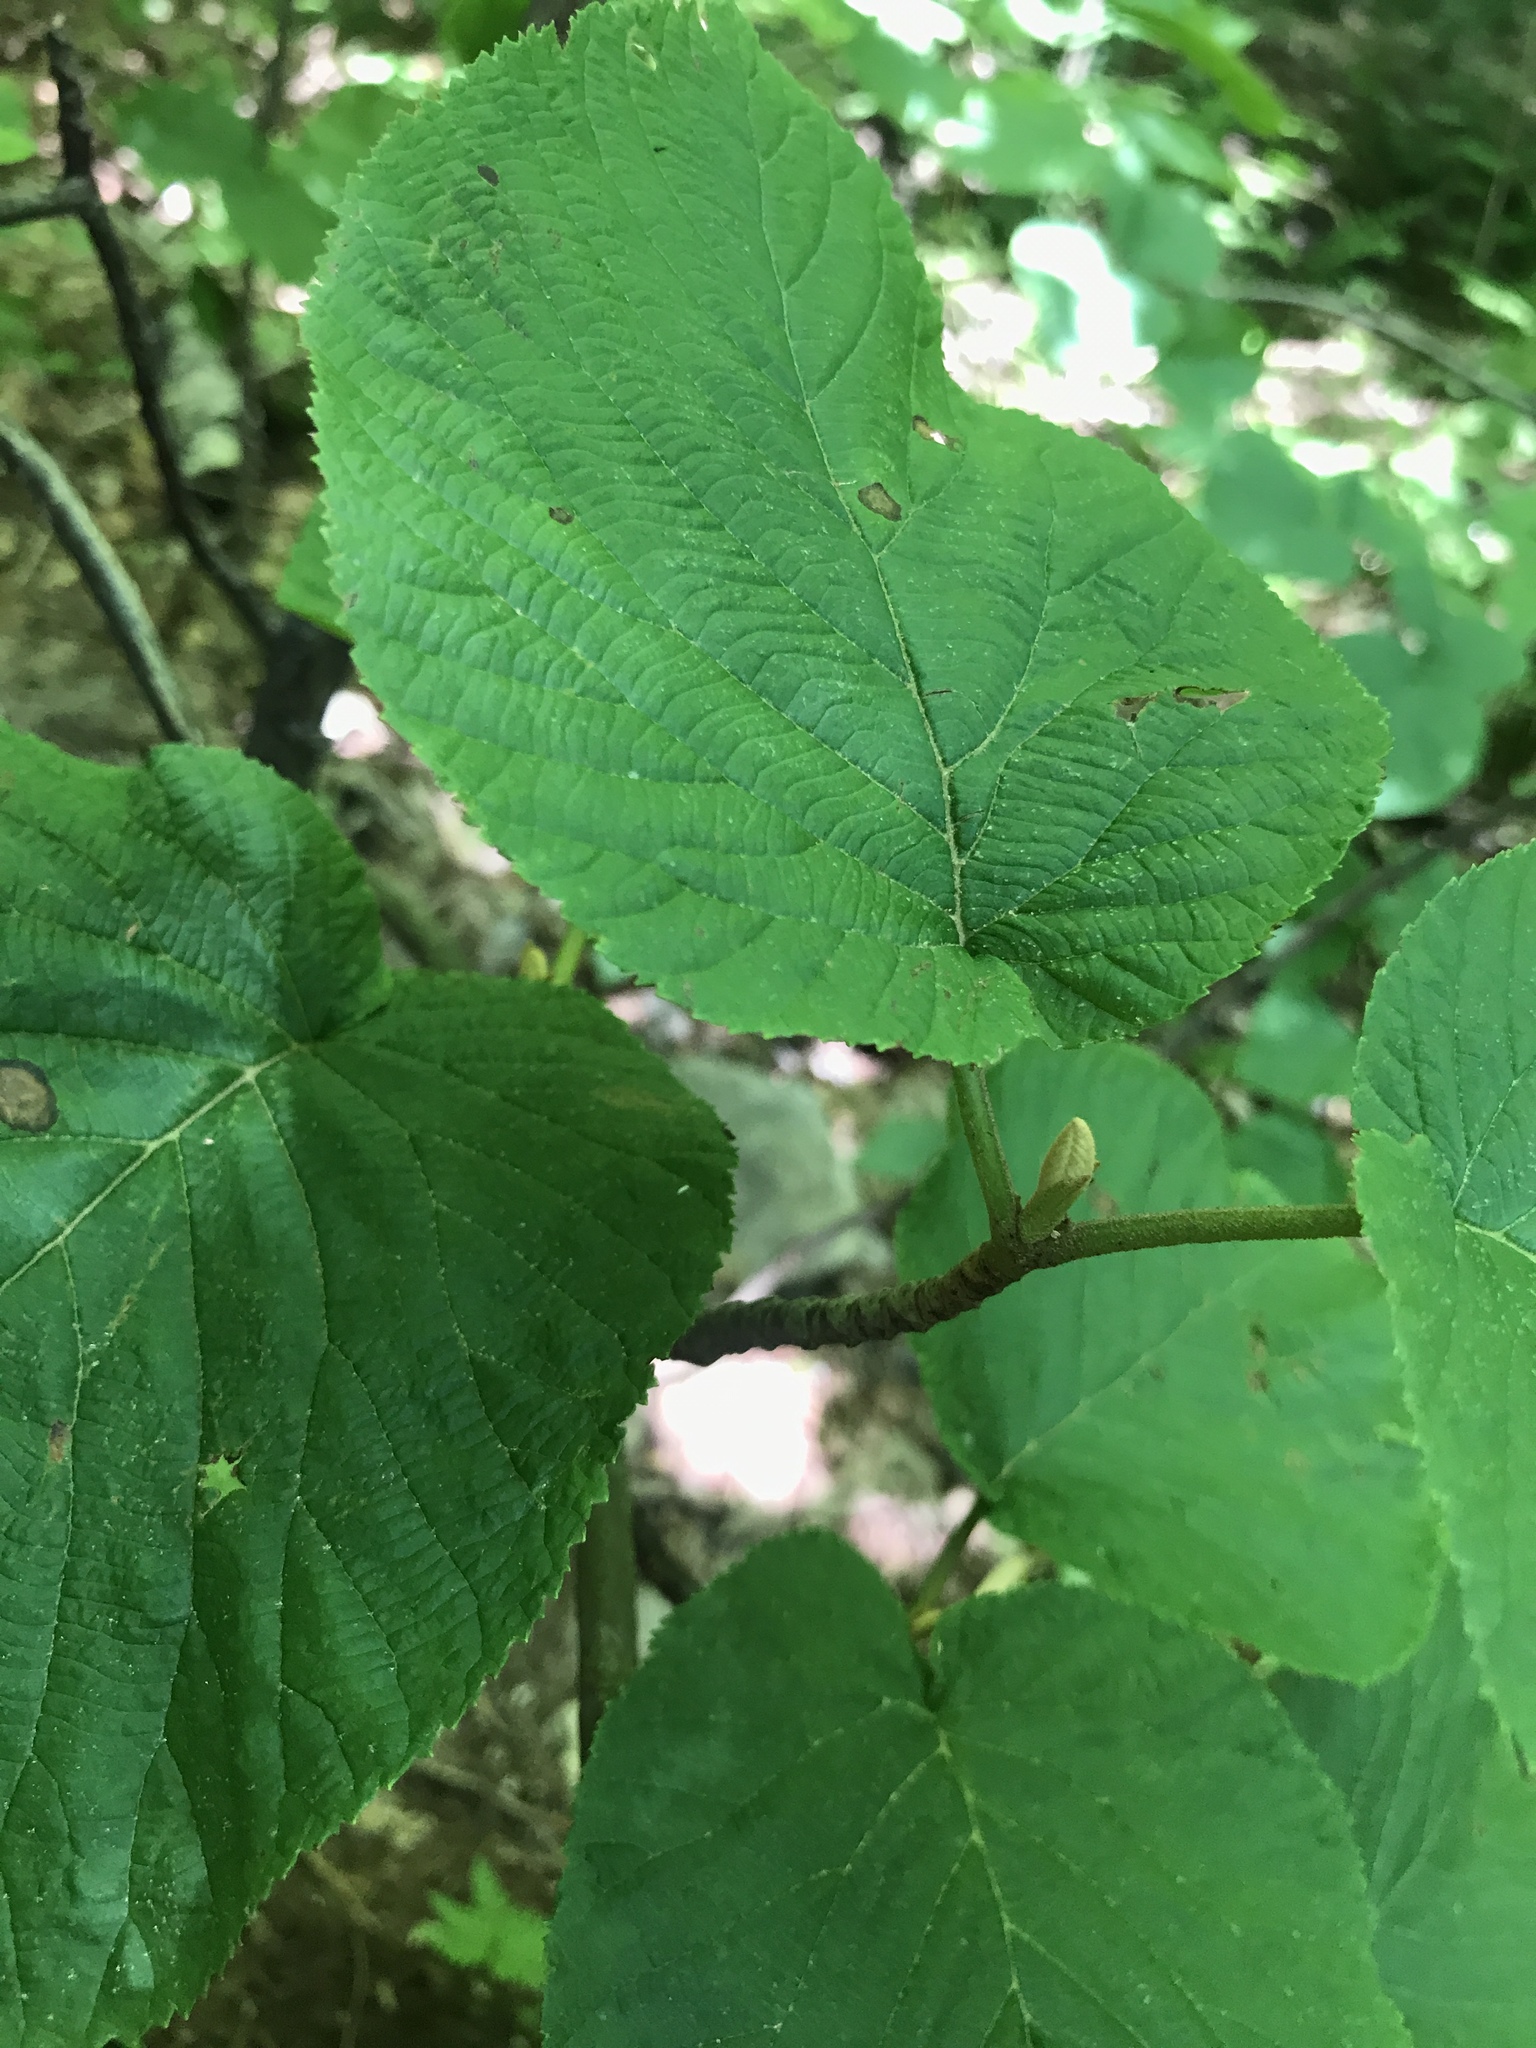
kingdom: Plantae
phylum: Tracheophyta
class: Magnoliopsida
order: Dipsacales
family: Viburnaceae
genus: Viburnum
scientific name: Viburnum lantanoides
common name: Hobblebush
